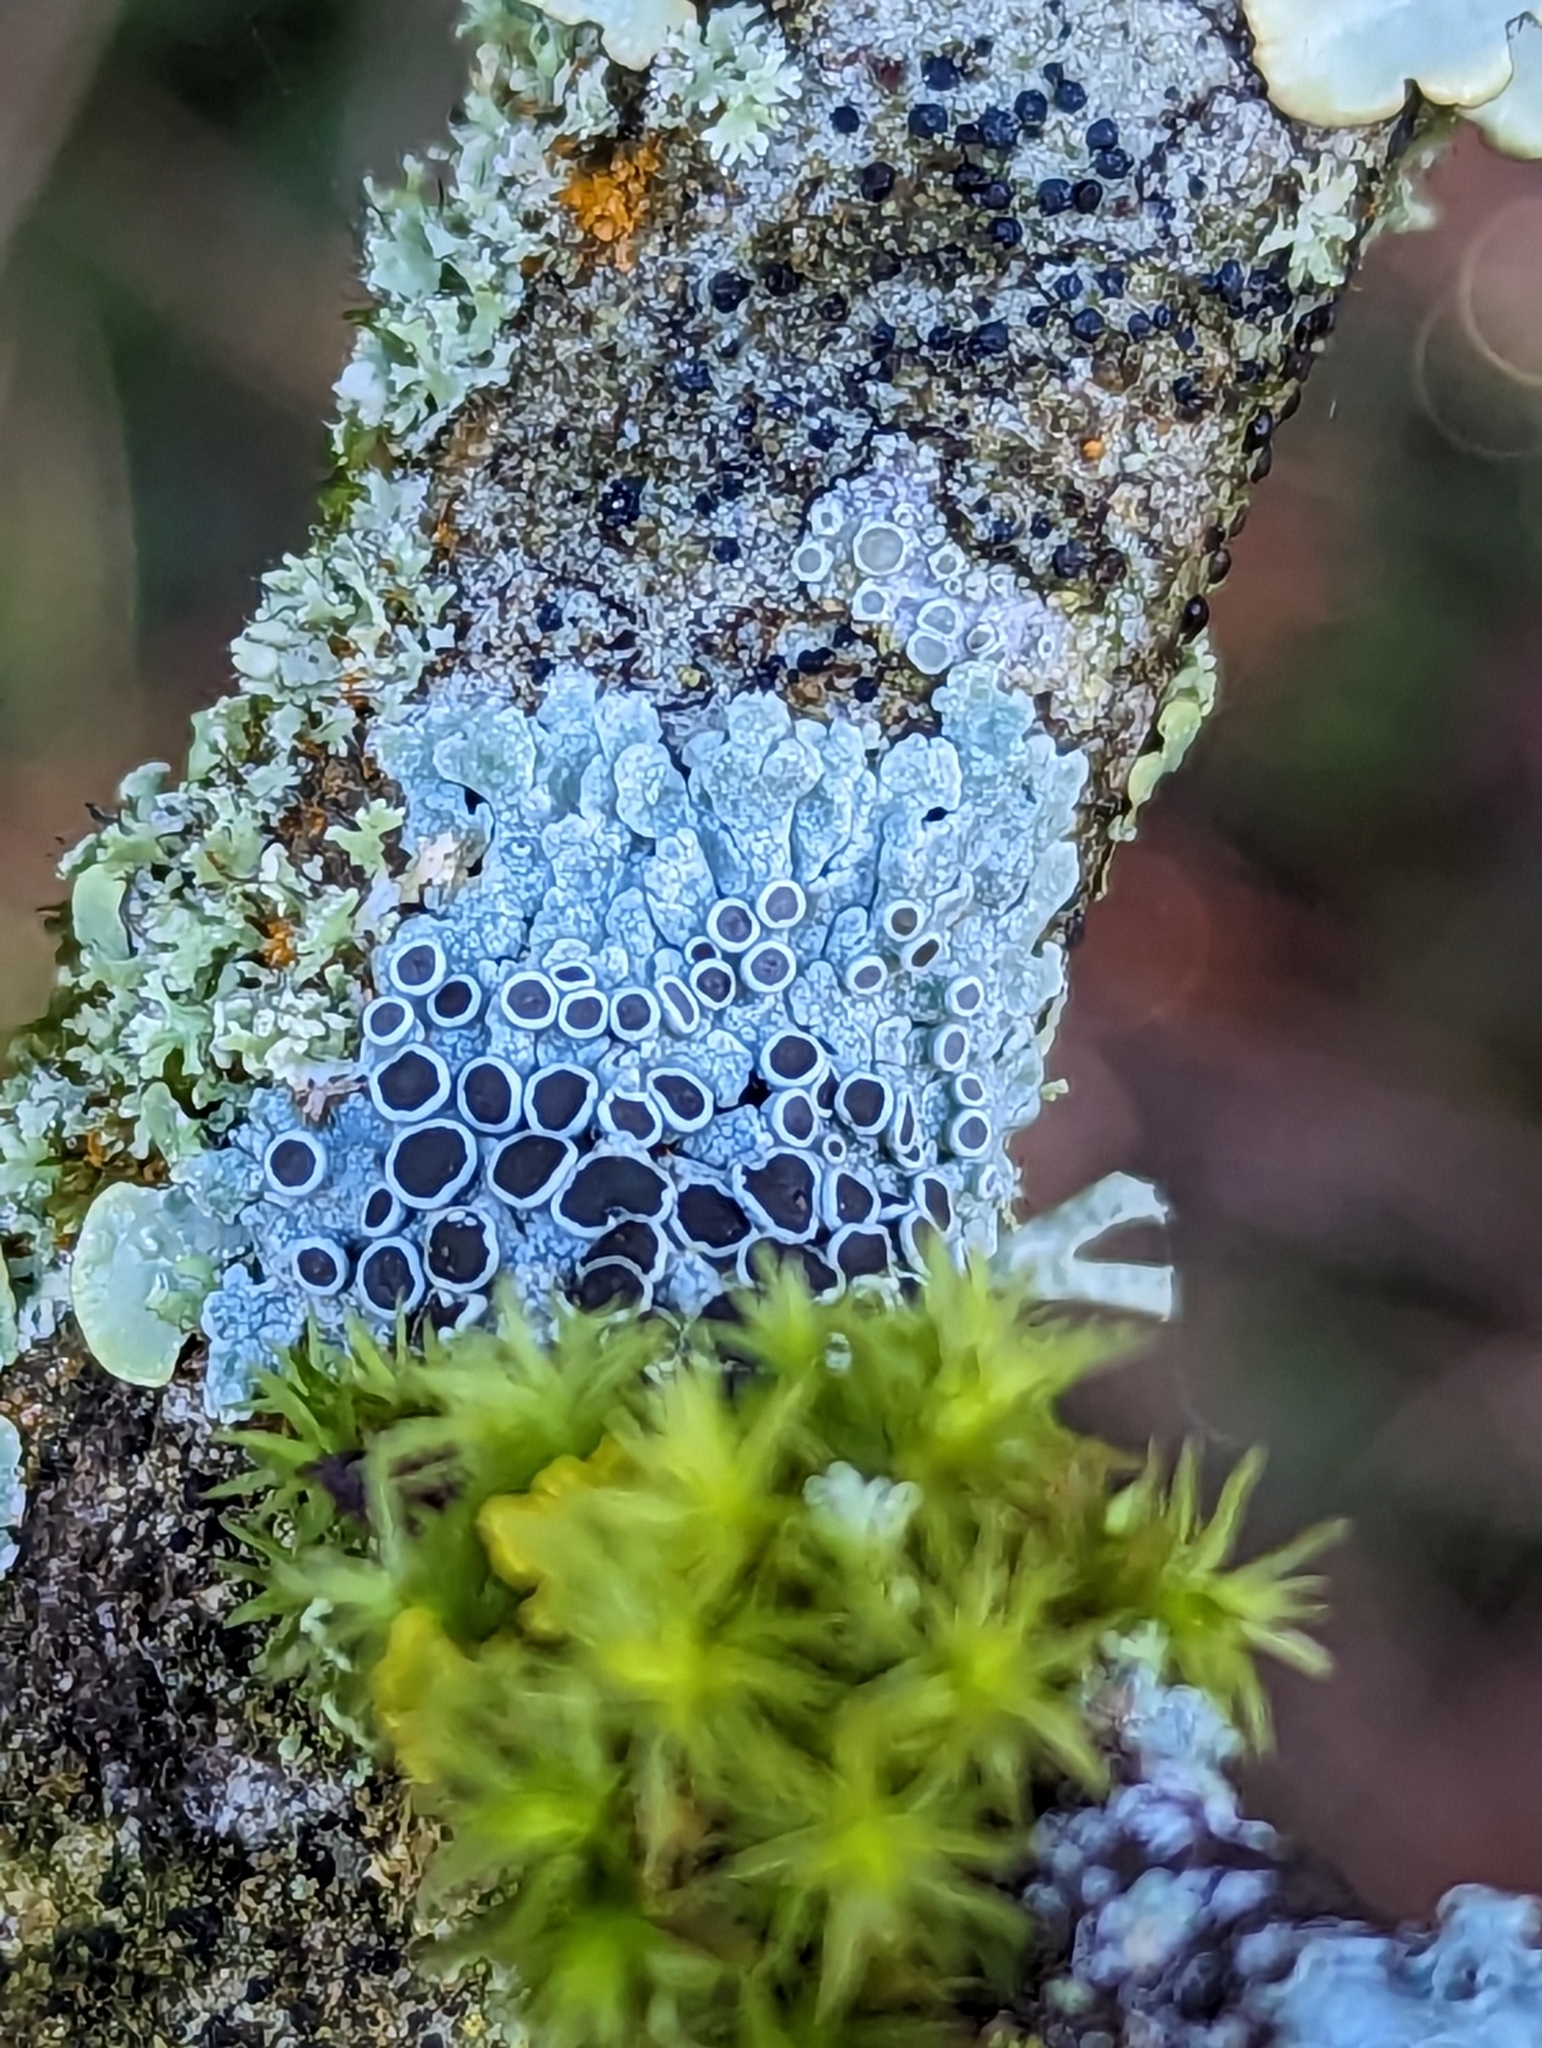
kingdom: Fungi
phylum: Ascomycota
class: Lecanoromycetes
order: Caliciales
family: Physciaceae
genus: Physcia
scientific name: Physcia aipolia
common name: Hoary rosette lichen
